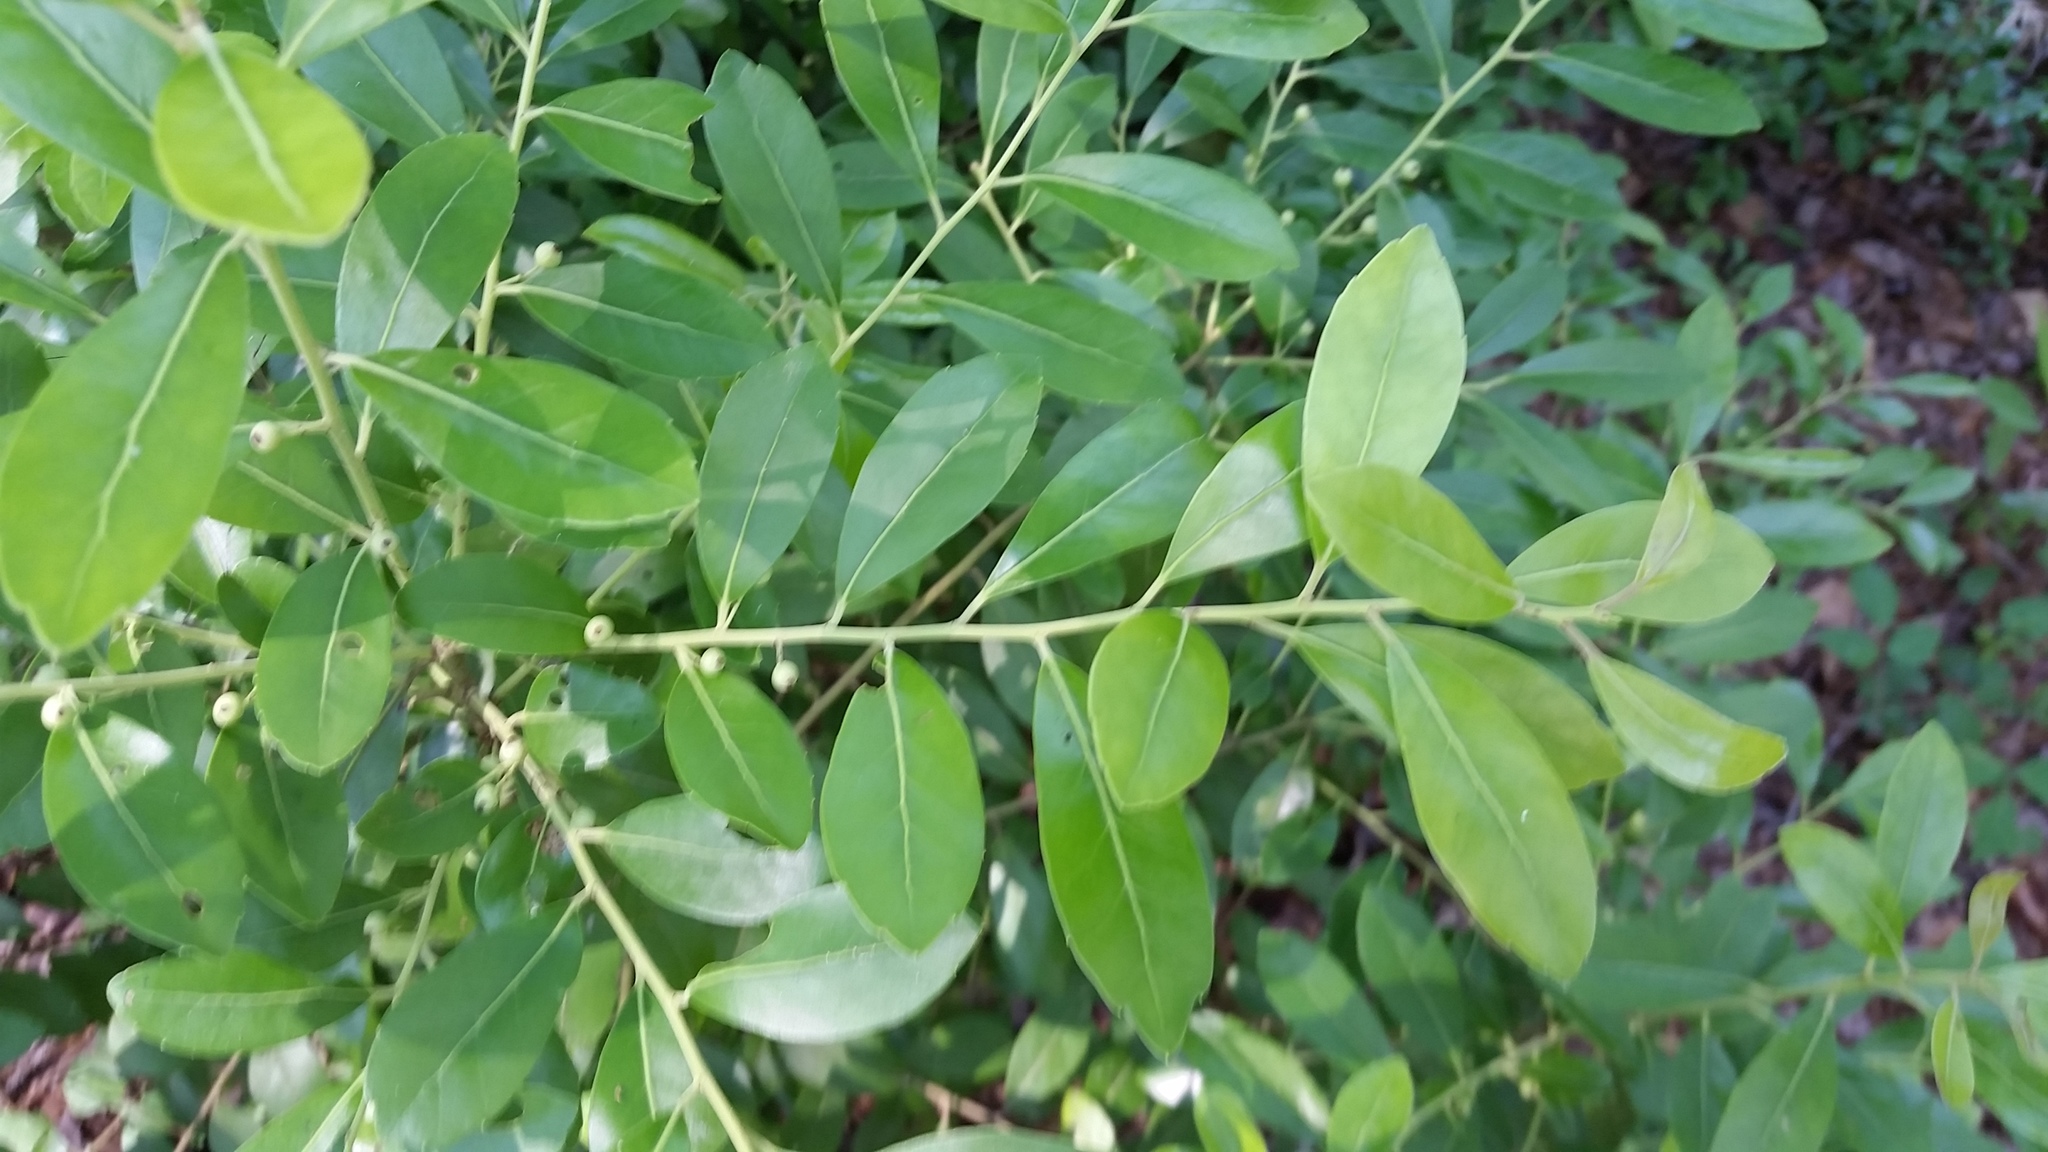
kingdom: Plantae
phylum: Tracheophyta
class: Magnoliopsida
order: Aquifoliales
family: Aquifoliaceae
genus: Ilex
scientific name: Ilex glabra
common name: Bitter gallberry
